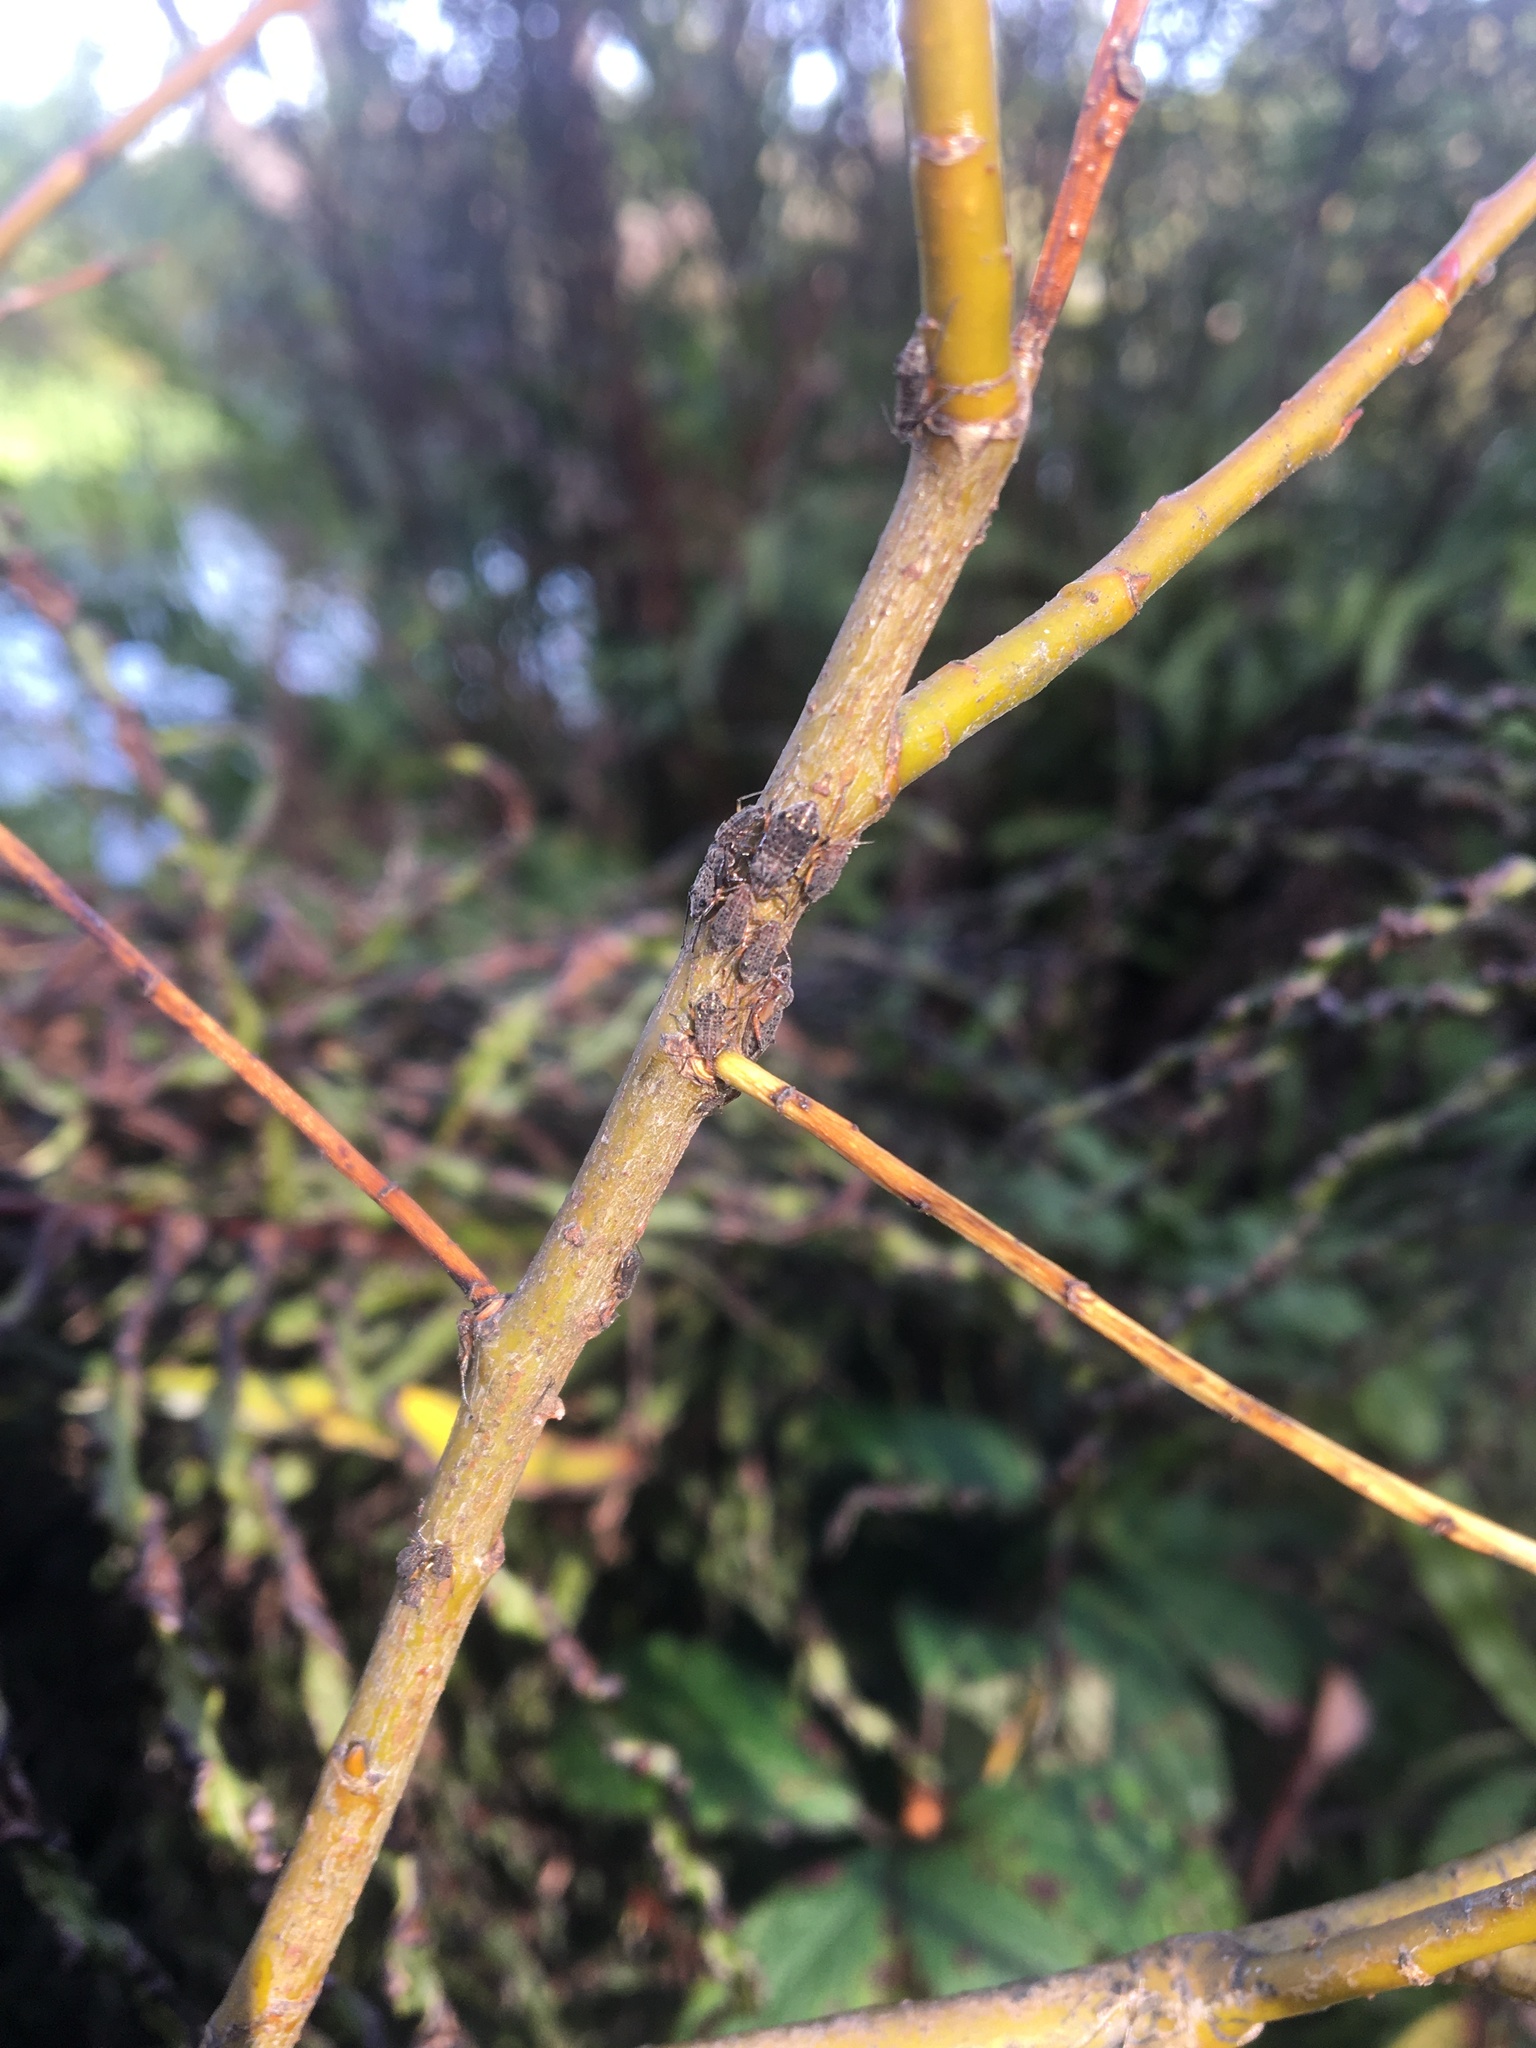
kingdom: Animalia
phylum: Arthropoda
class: Insecta
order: Hemiptera
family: Aphididae
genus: Tuberolachnus
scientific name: Tuberolachnus salignus
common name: Giant willow aphid
